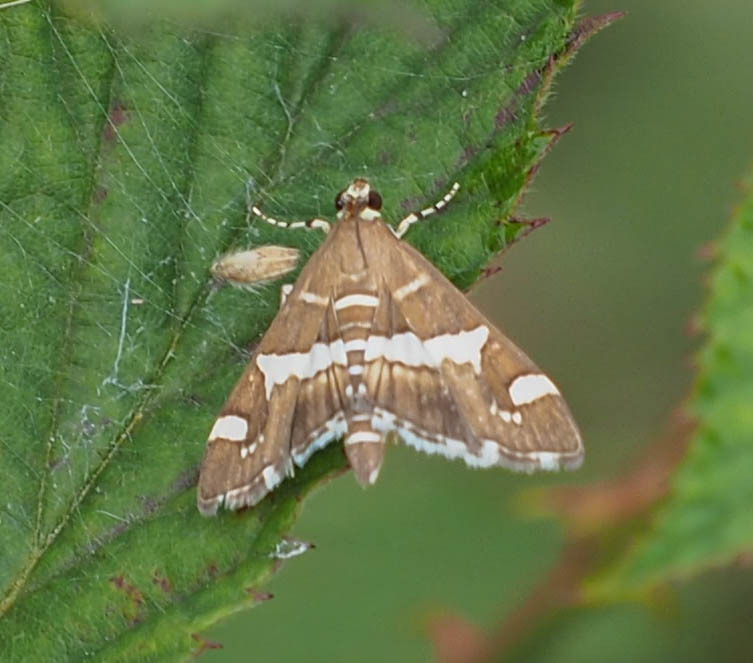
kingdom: Animalia
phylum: Arthropoda
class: Insecta
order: Lepidoptera
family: Crambidae
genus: Spoladea
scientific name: Spoladea recurvalis
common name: Beet webworm moth
